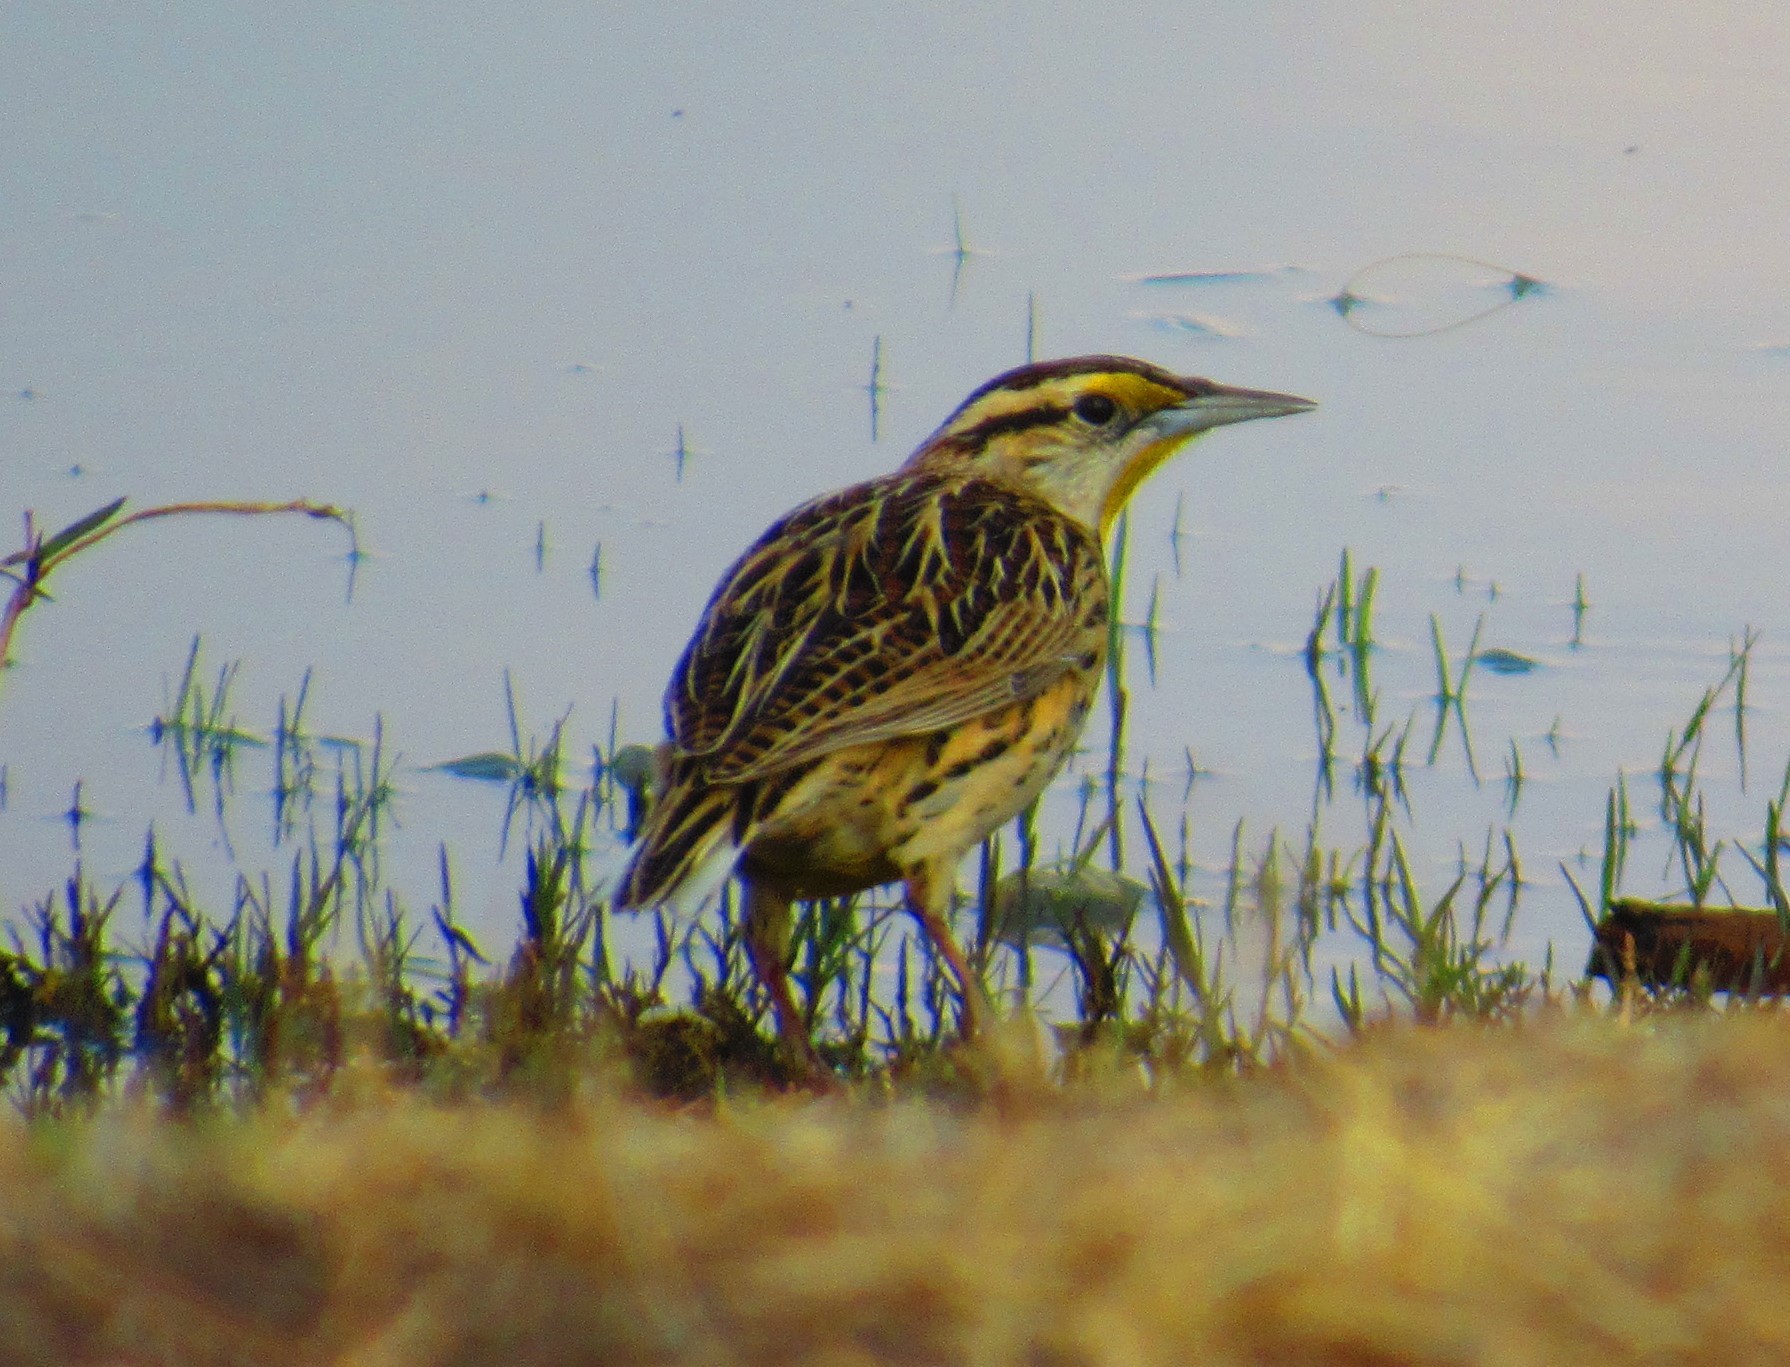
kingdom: Animalia
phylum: Chordata
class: Aves
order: Passeriformes
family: Icteridae
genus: Sturnella
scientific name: Sturnella lilianae
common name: Lilian's meadowlark
